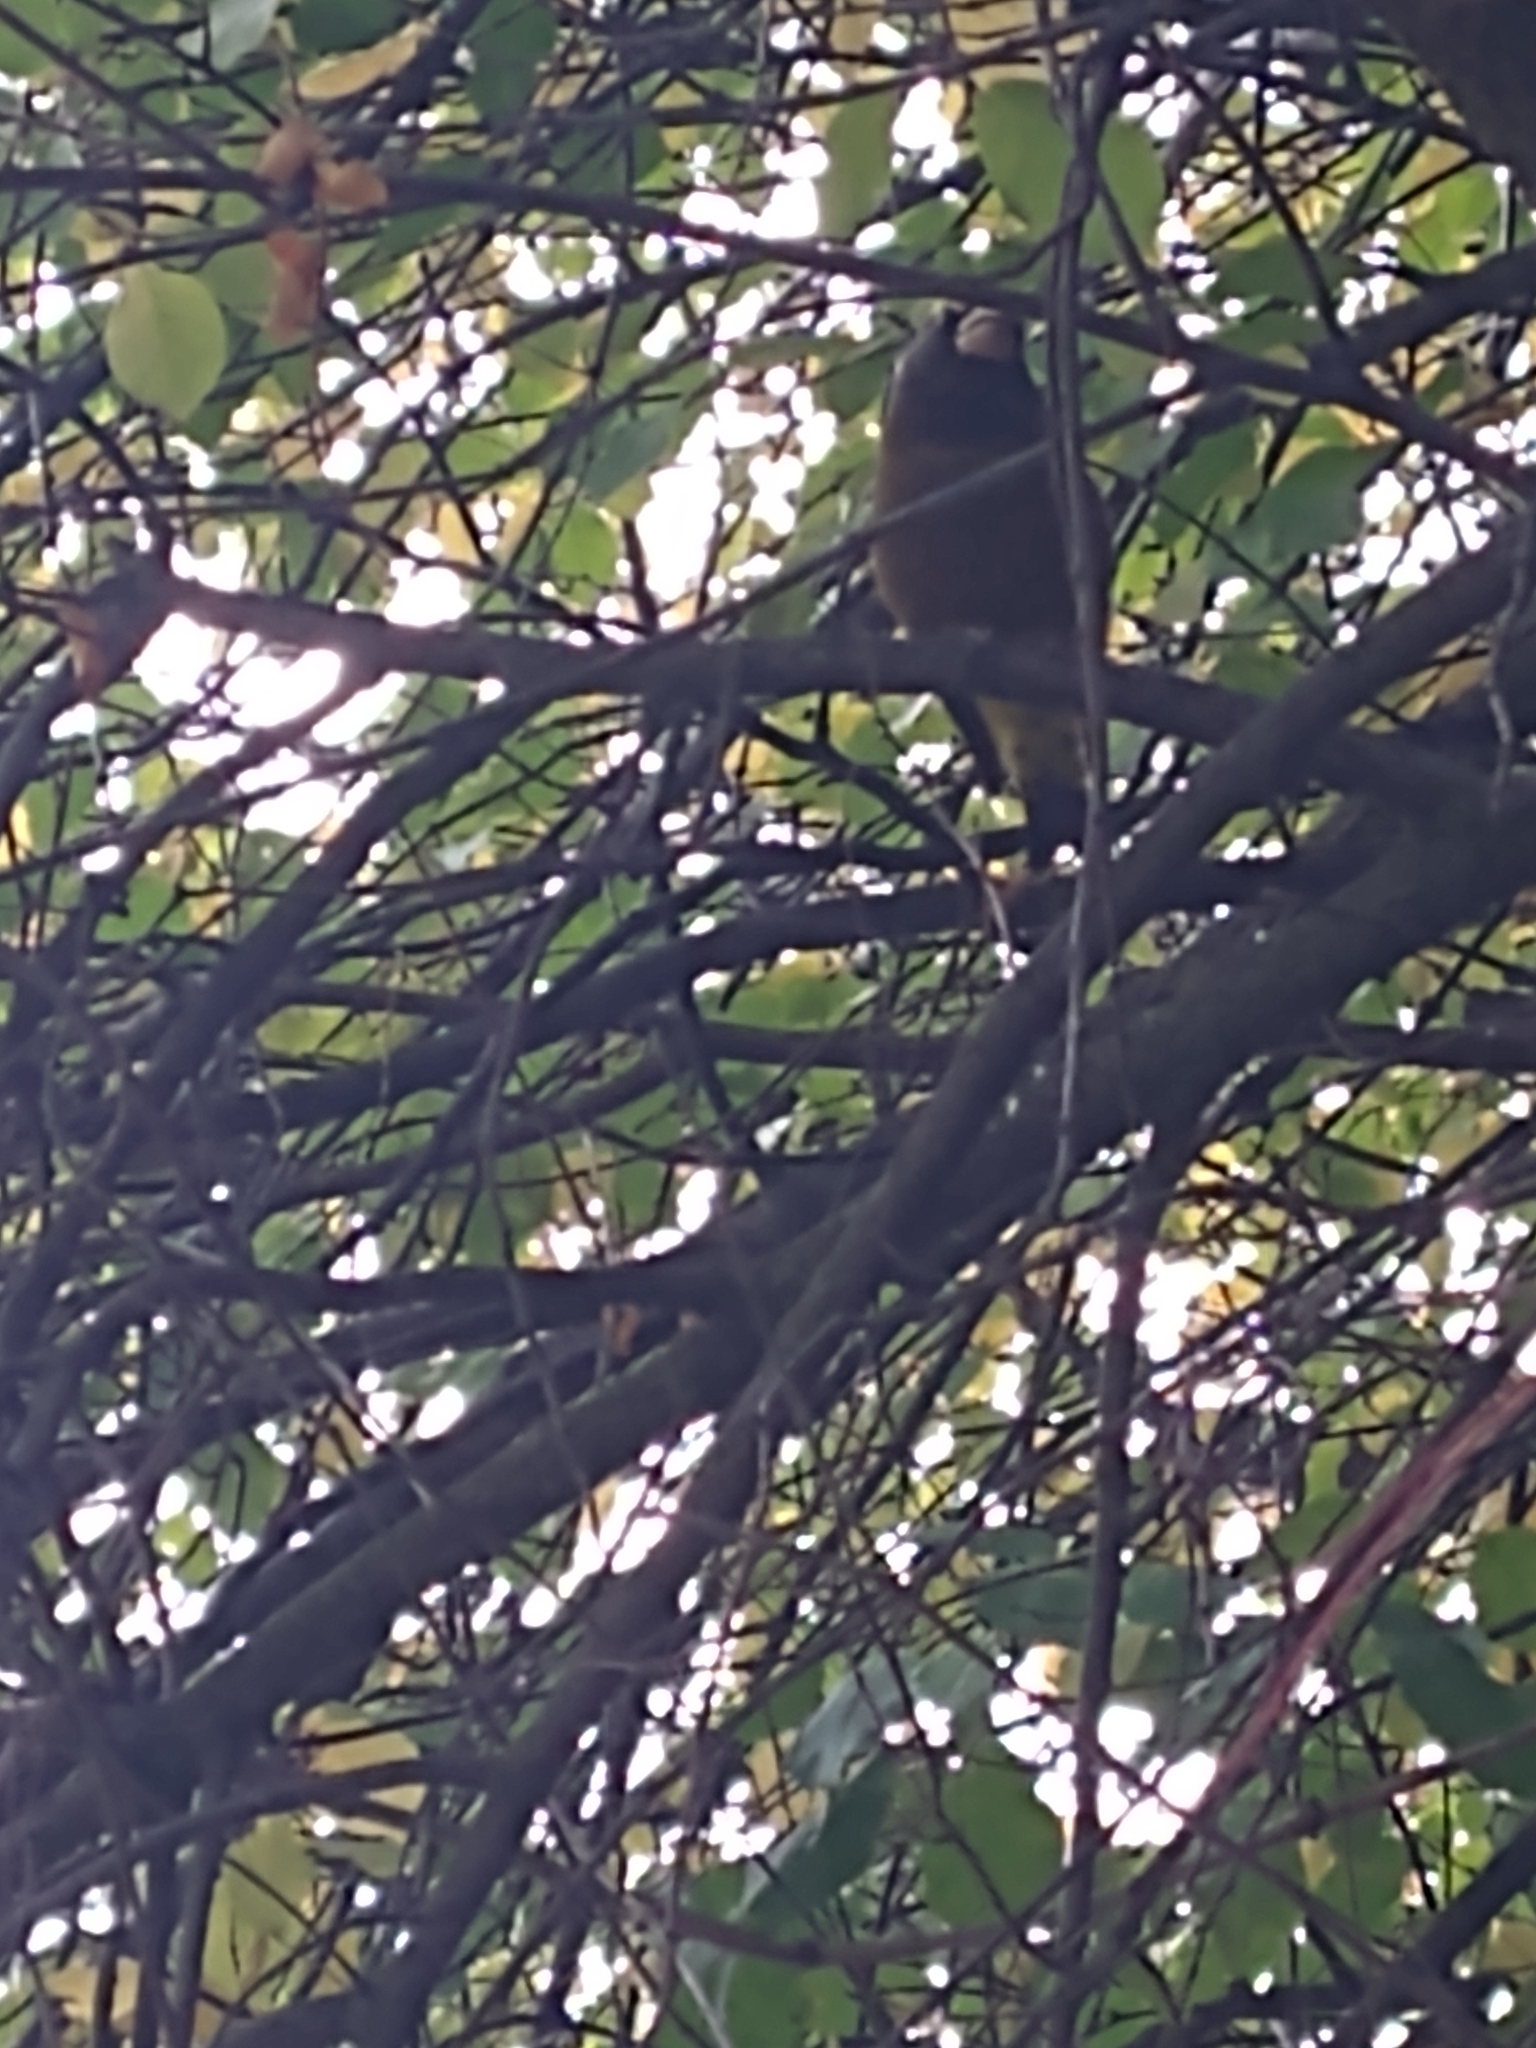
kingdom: Animalia
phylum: Chordata
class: Aves
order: Passeriformes
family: Fringillidae
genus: Hesperiphona
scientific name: Hesperiphona vespertina
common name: Evening grosbeak
